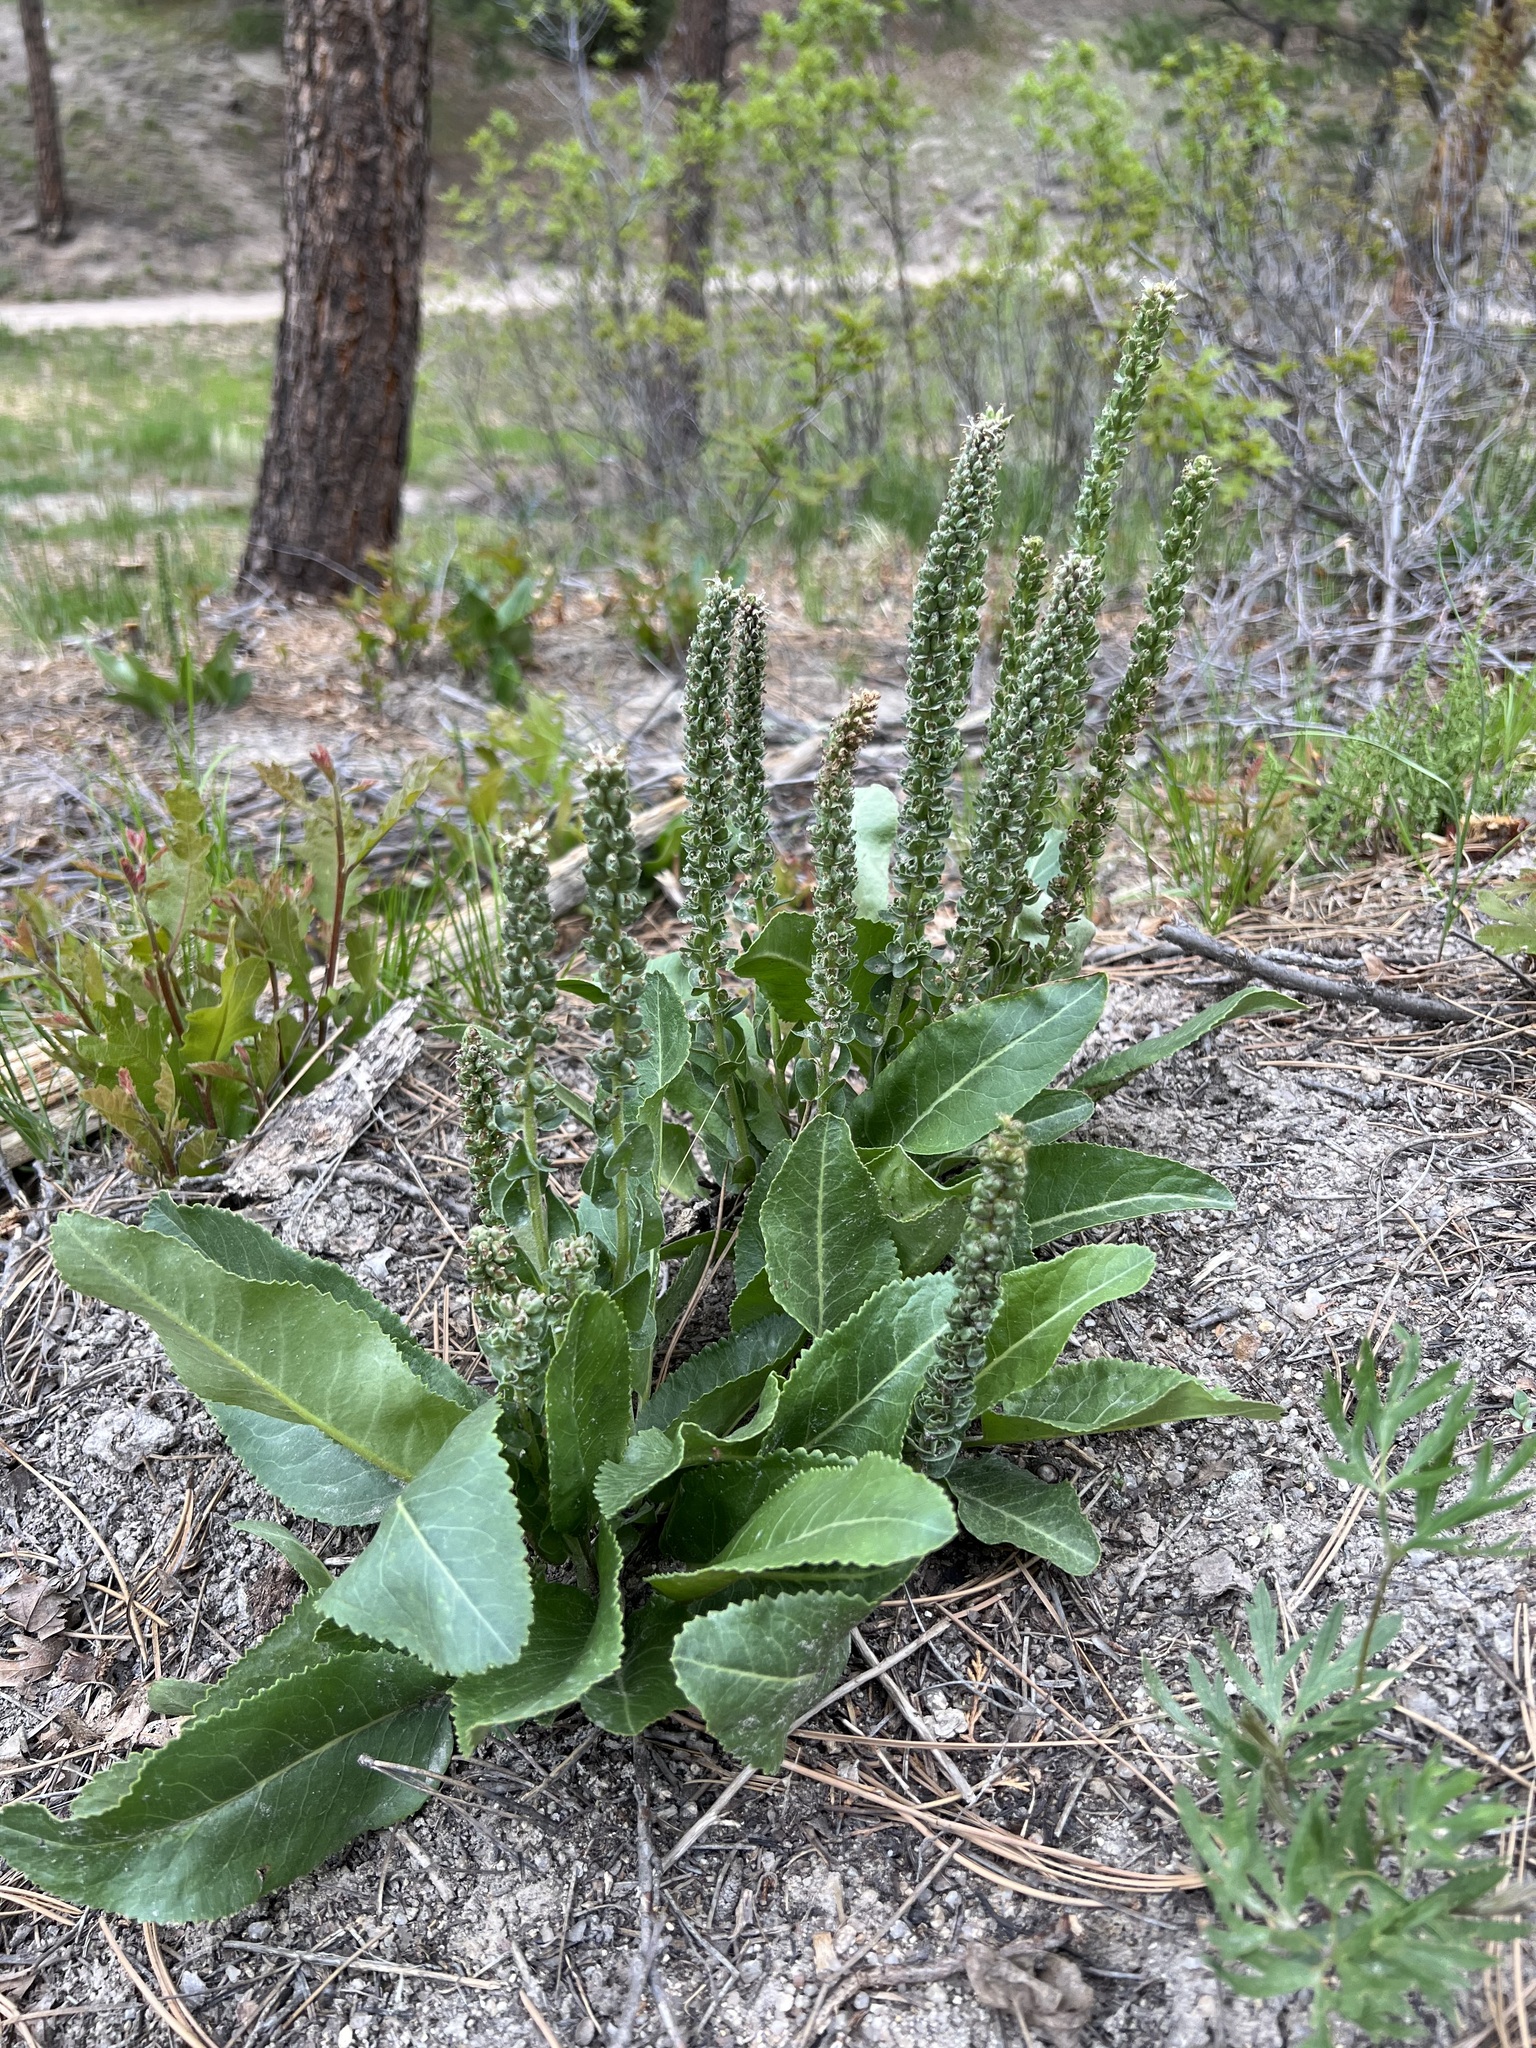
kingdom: Plantae
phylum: Tracheophyta
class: Magnoliopsida
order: Lamiales
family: Plantaginaceae
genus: Veronica
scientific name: Veronica plantaginea
